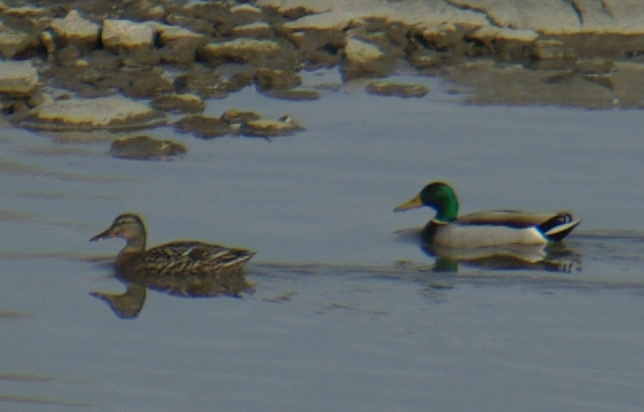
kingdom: Animalia
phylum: Chordata
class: Aves
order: Anseriformes
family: Anatidae
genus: Anas
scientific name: Anas platyrhynchos
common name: Mallard
